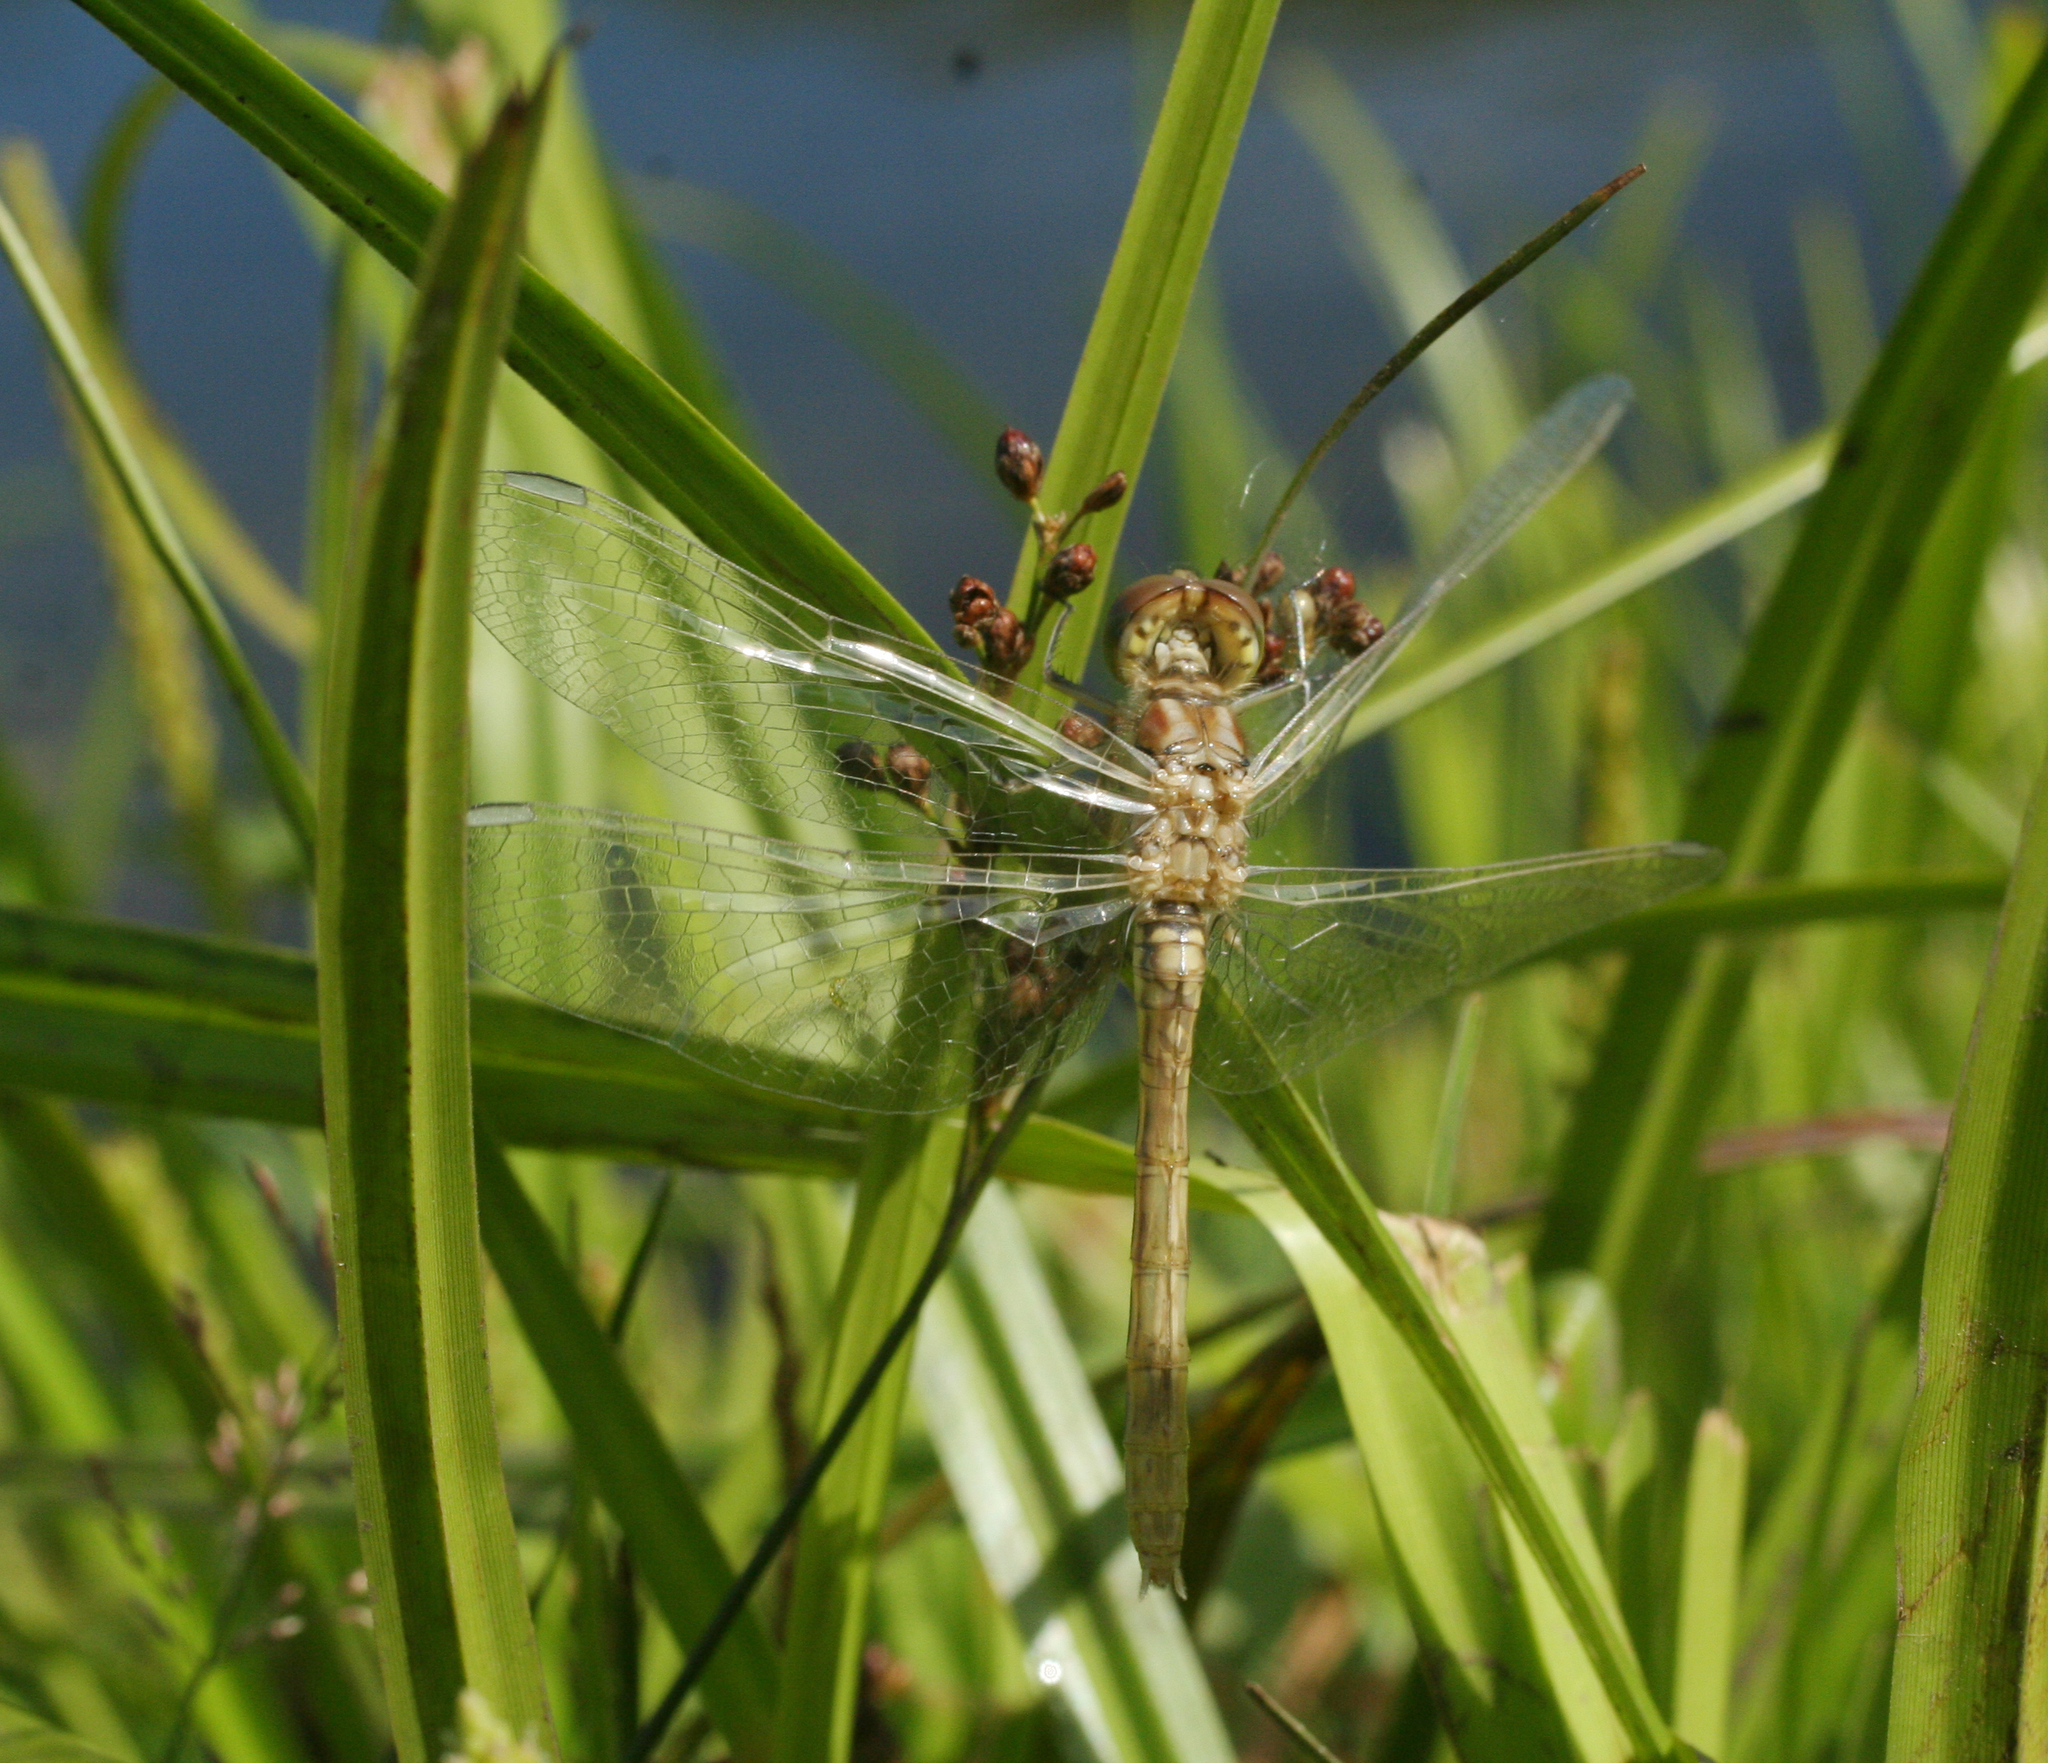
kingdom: Animalia
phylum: Arthropoda
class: Insecta
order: Odonata
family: Libellulidae
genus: Sympetrum
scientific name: Sympetrum vulgatum
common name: Vagrant darter
